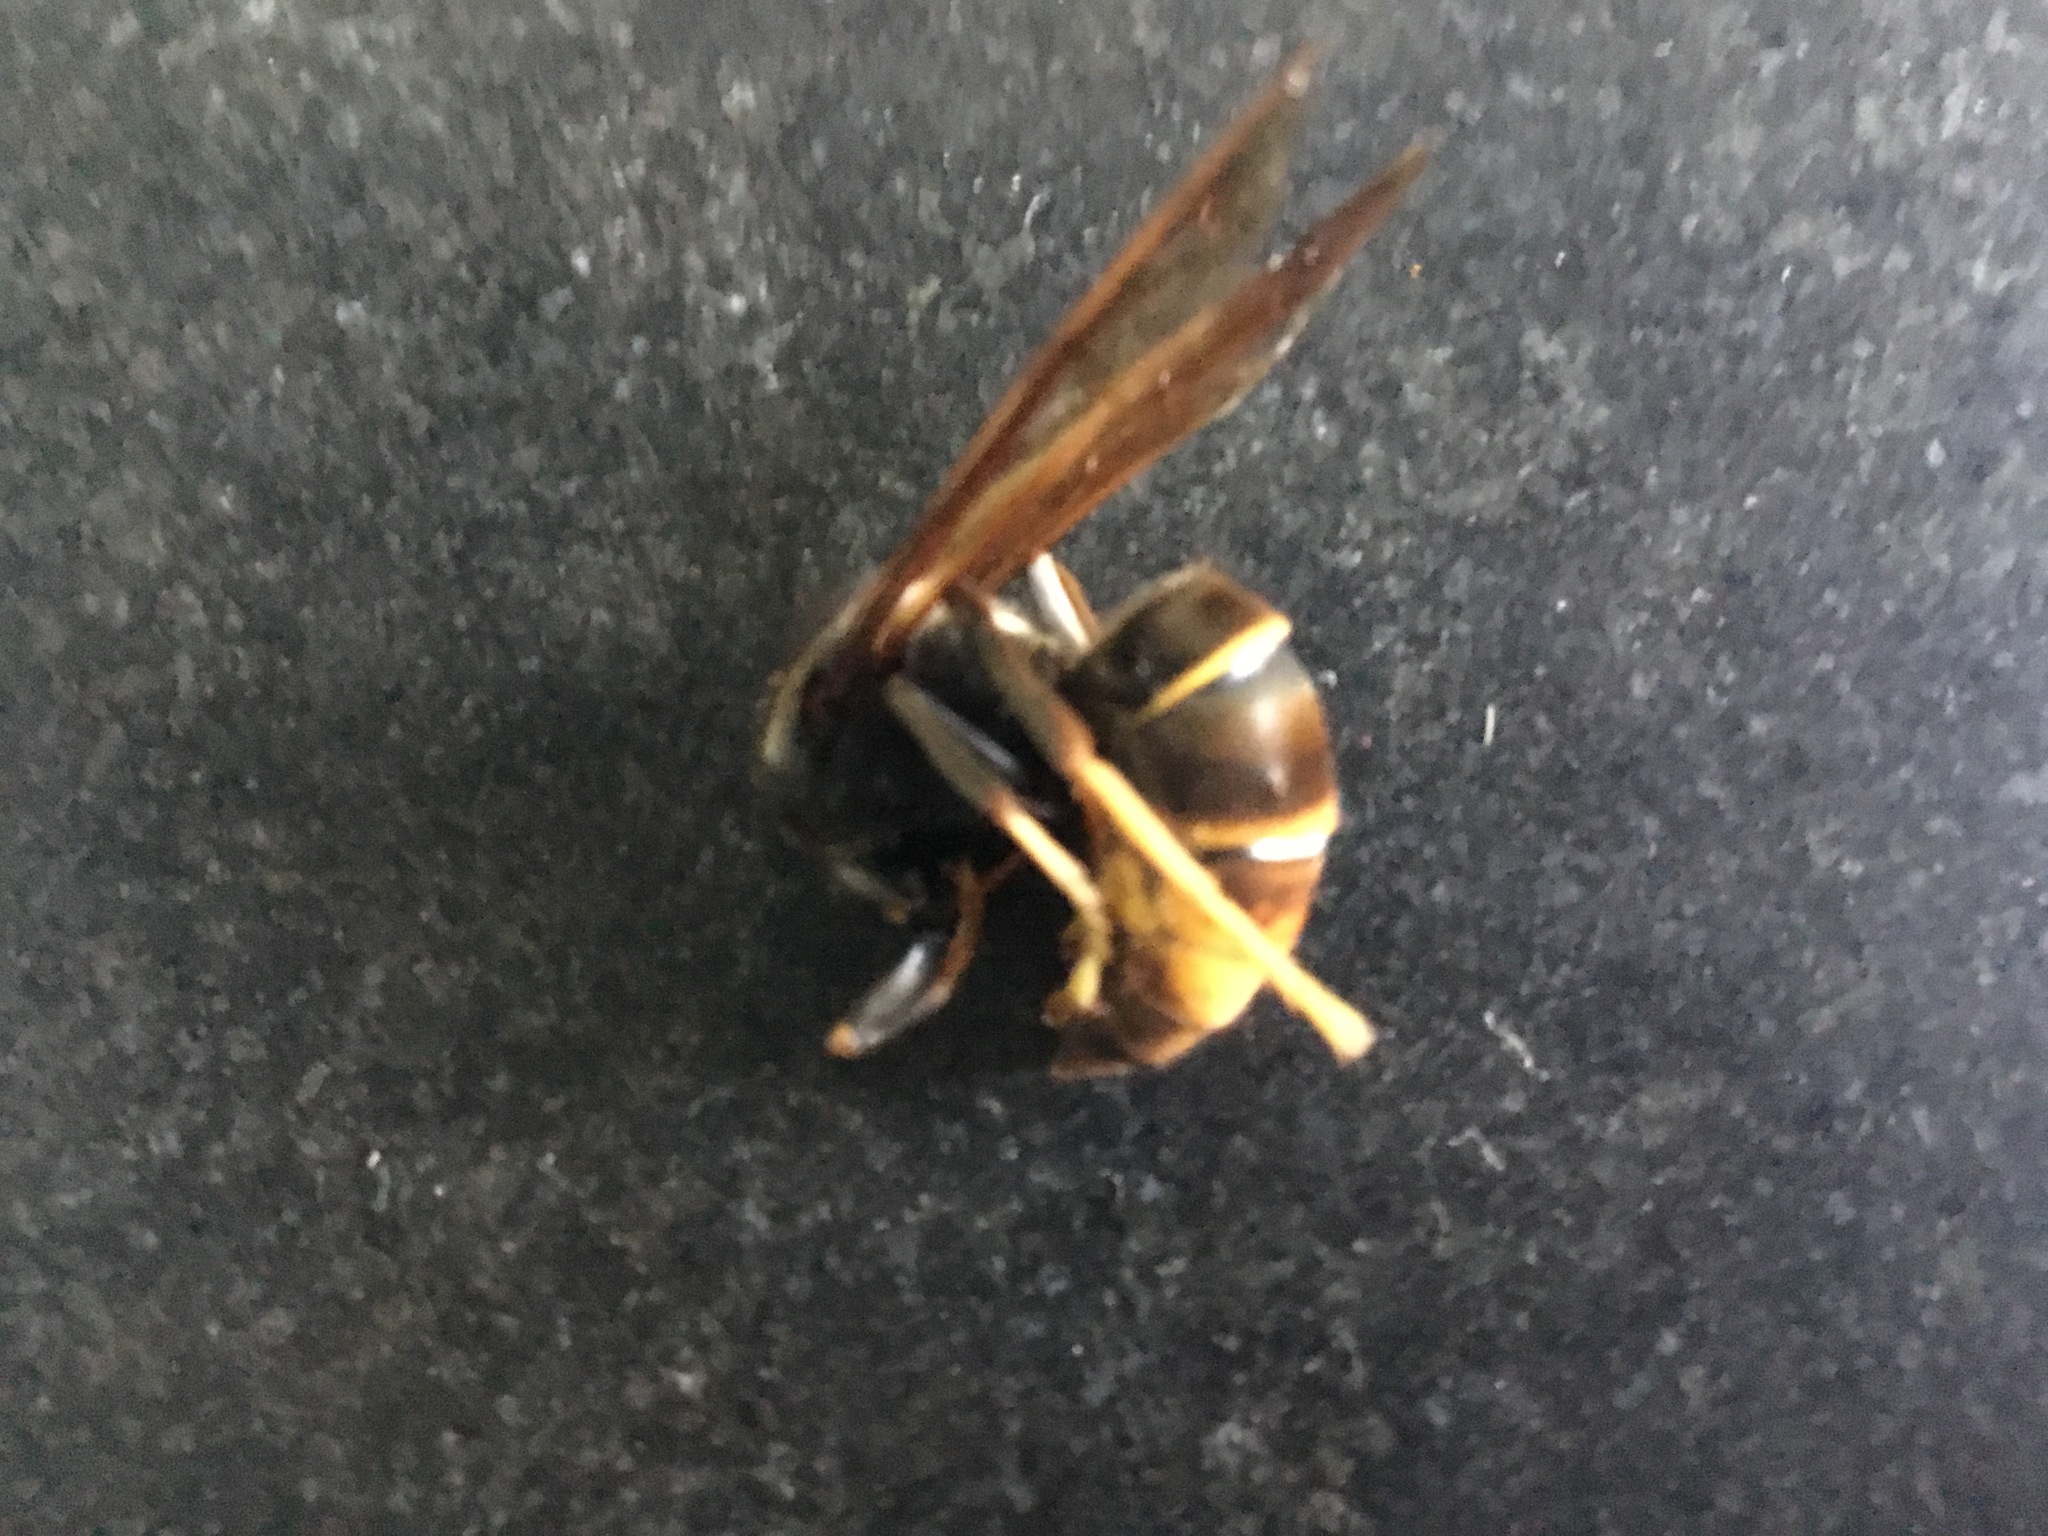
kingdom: Animalia
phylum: Arthropoda
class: Insecta
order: Hymenoptera
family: Vespidae
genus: Vespa
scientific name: Vespa velutina
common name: Asian hornet
